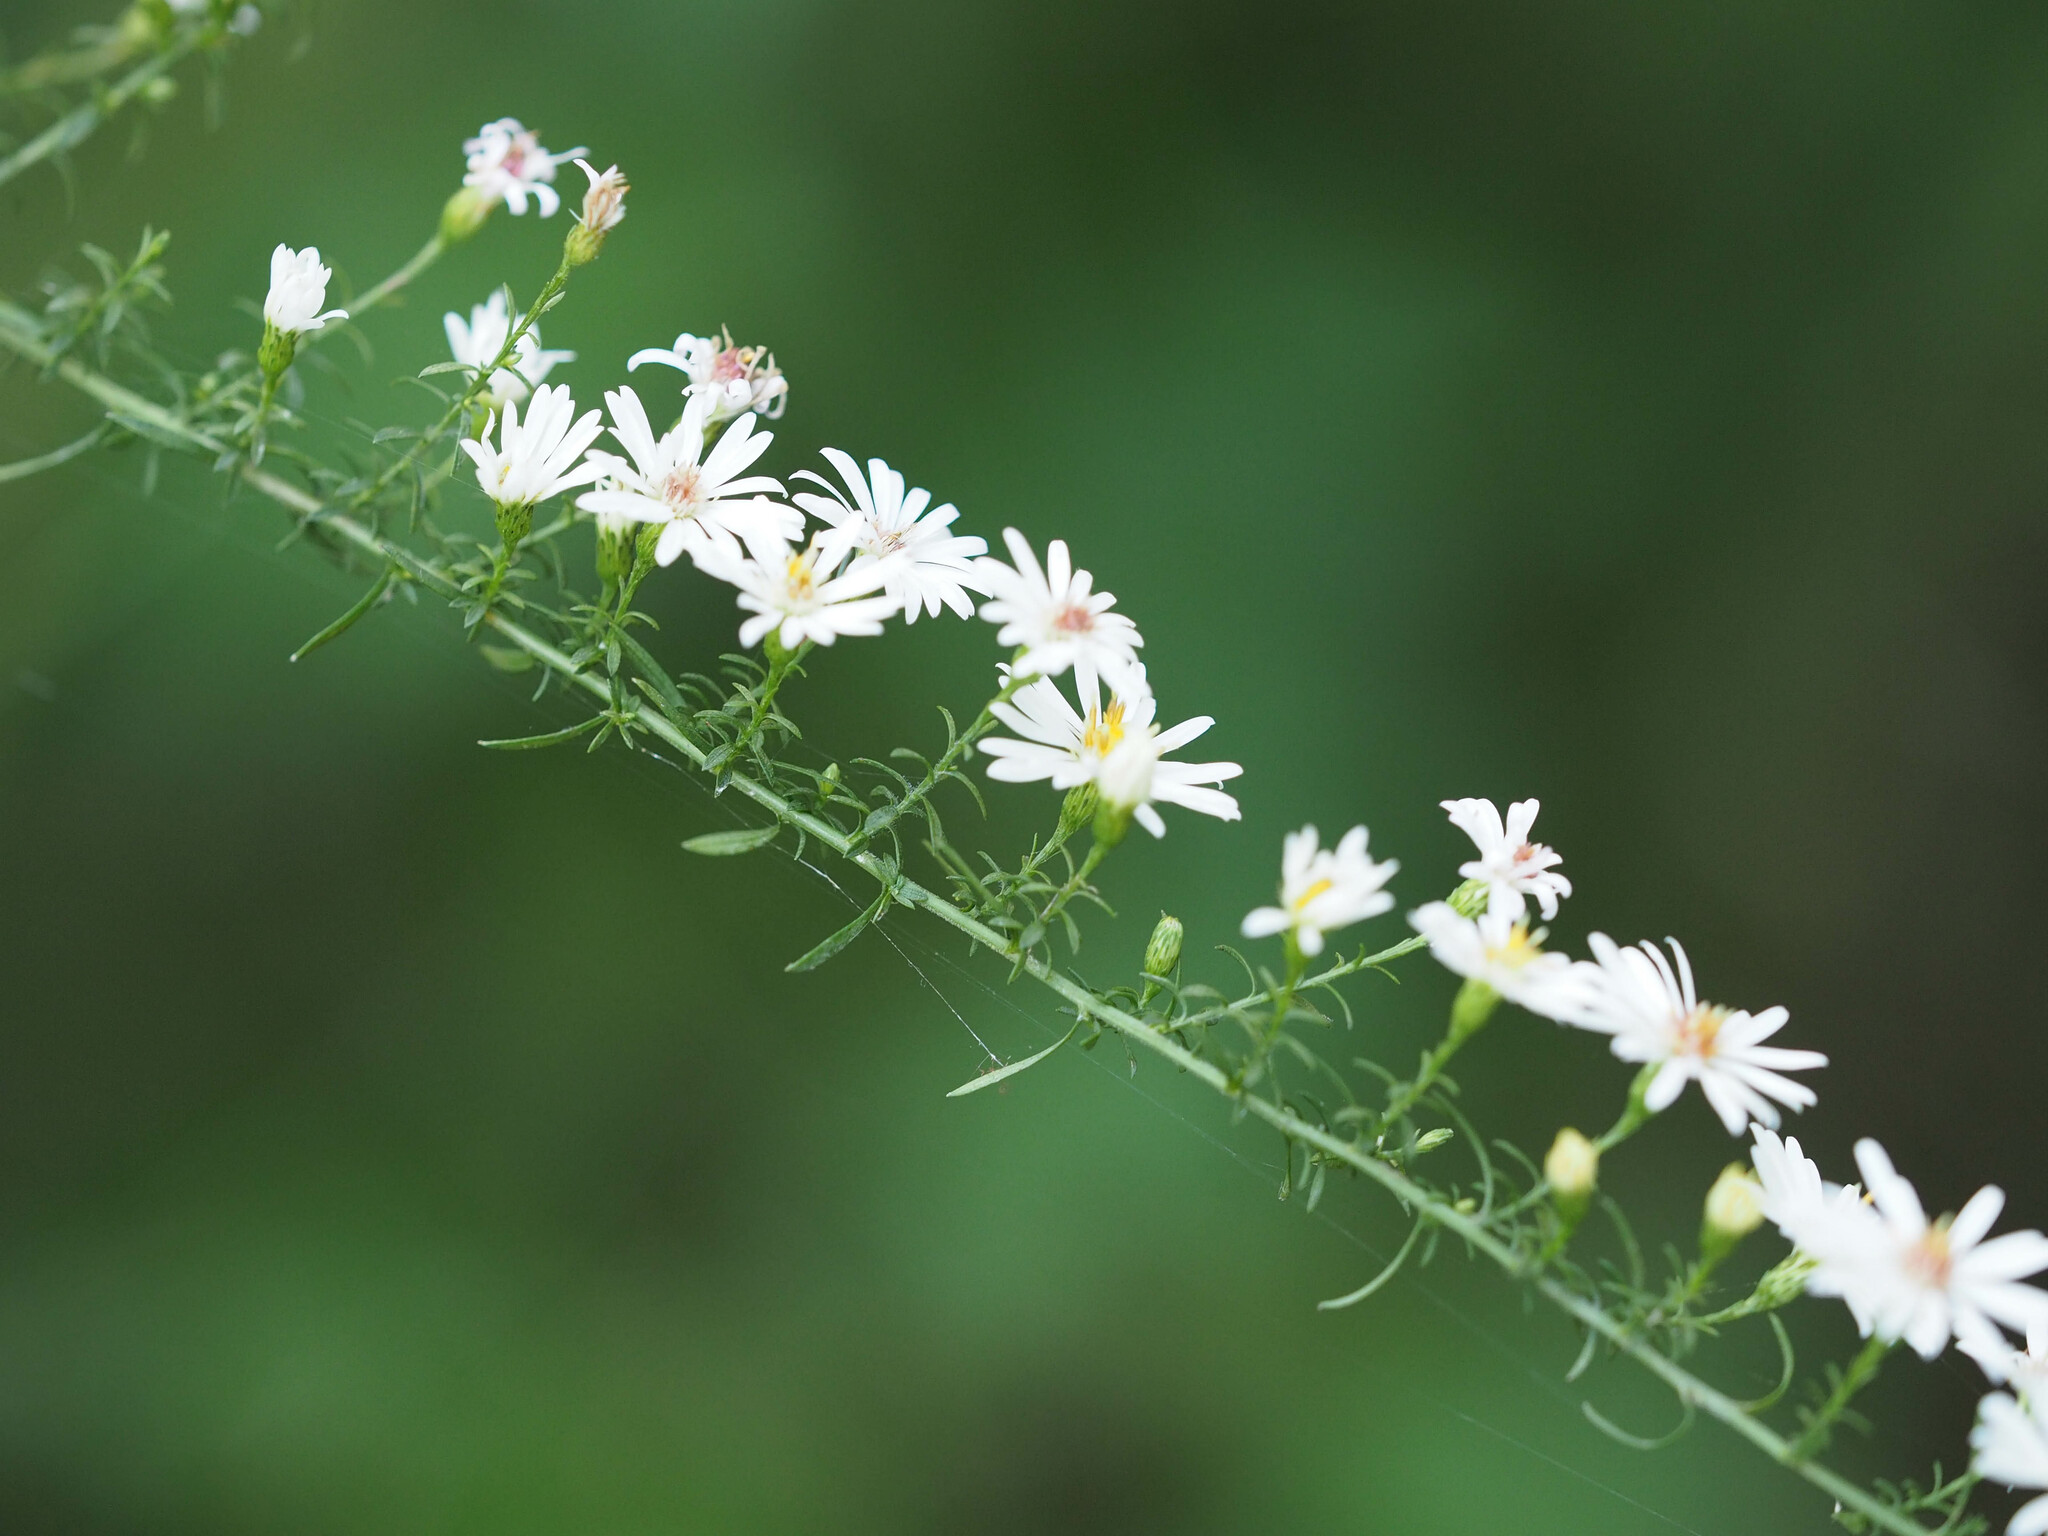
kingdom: Plantae
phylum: Tracheophyta
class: Magnoliopsida
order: Asterales
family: Asteraceae
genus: Symphyotrichum
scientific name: Symphyotrichum dumosum
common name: Bushy aster
